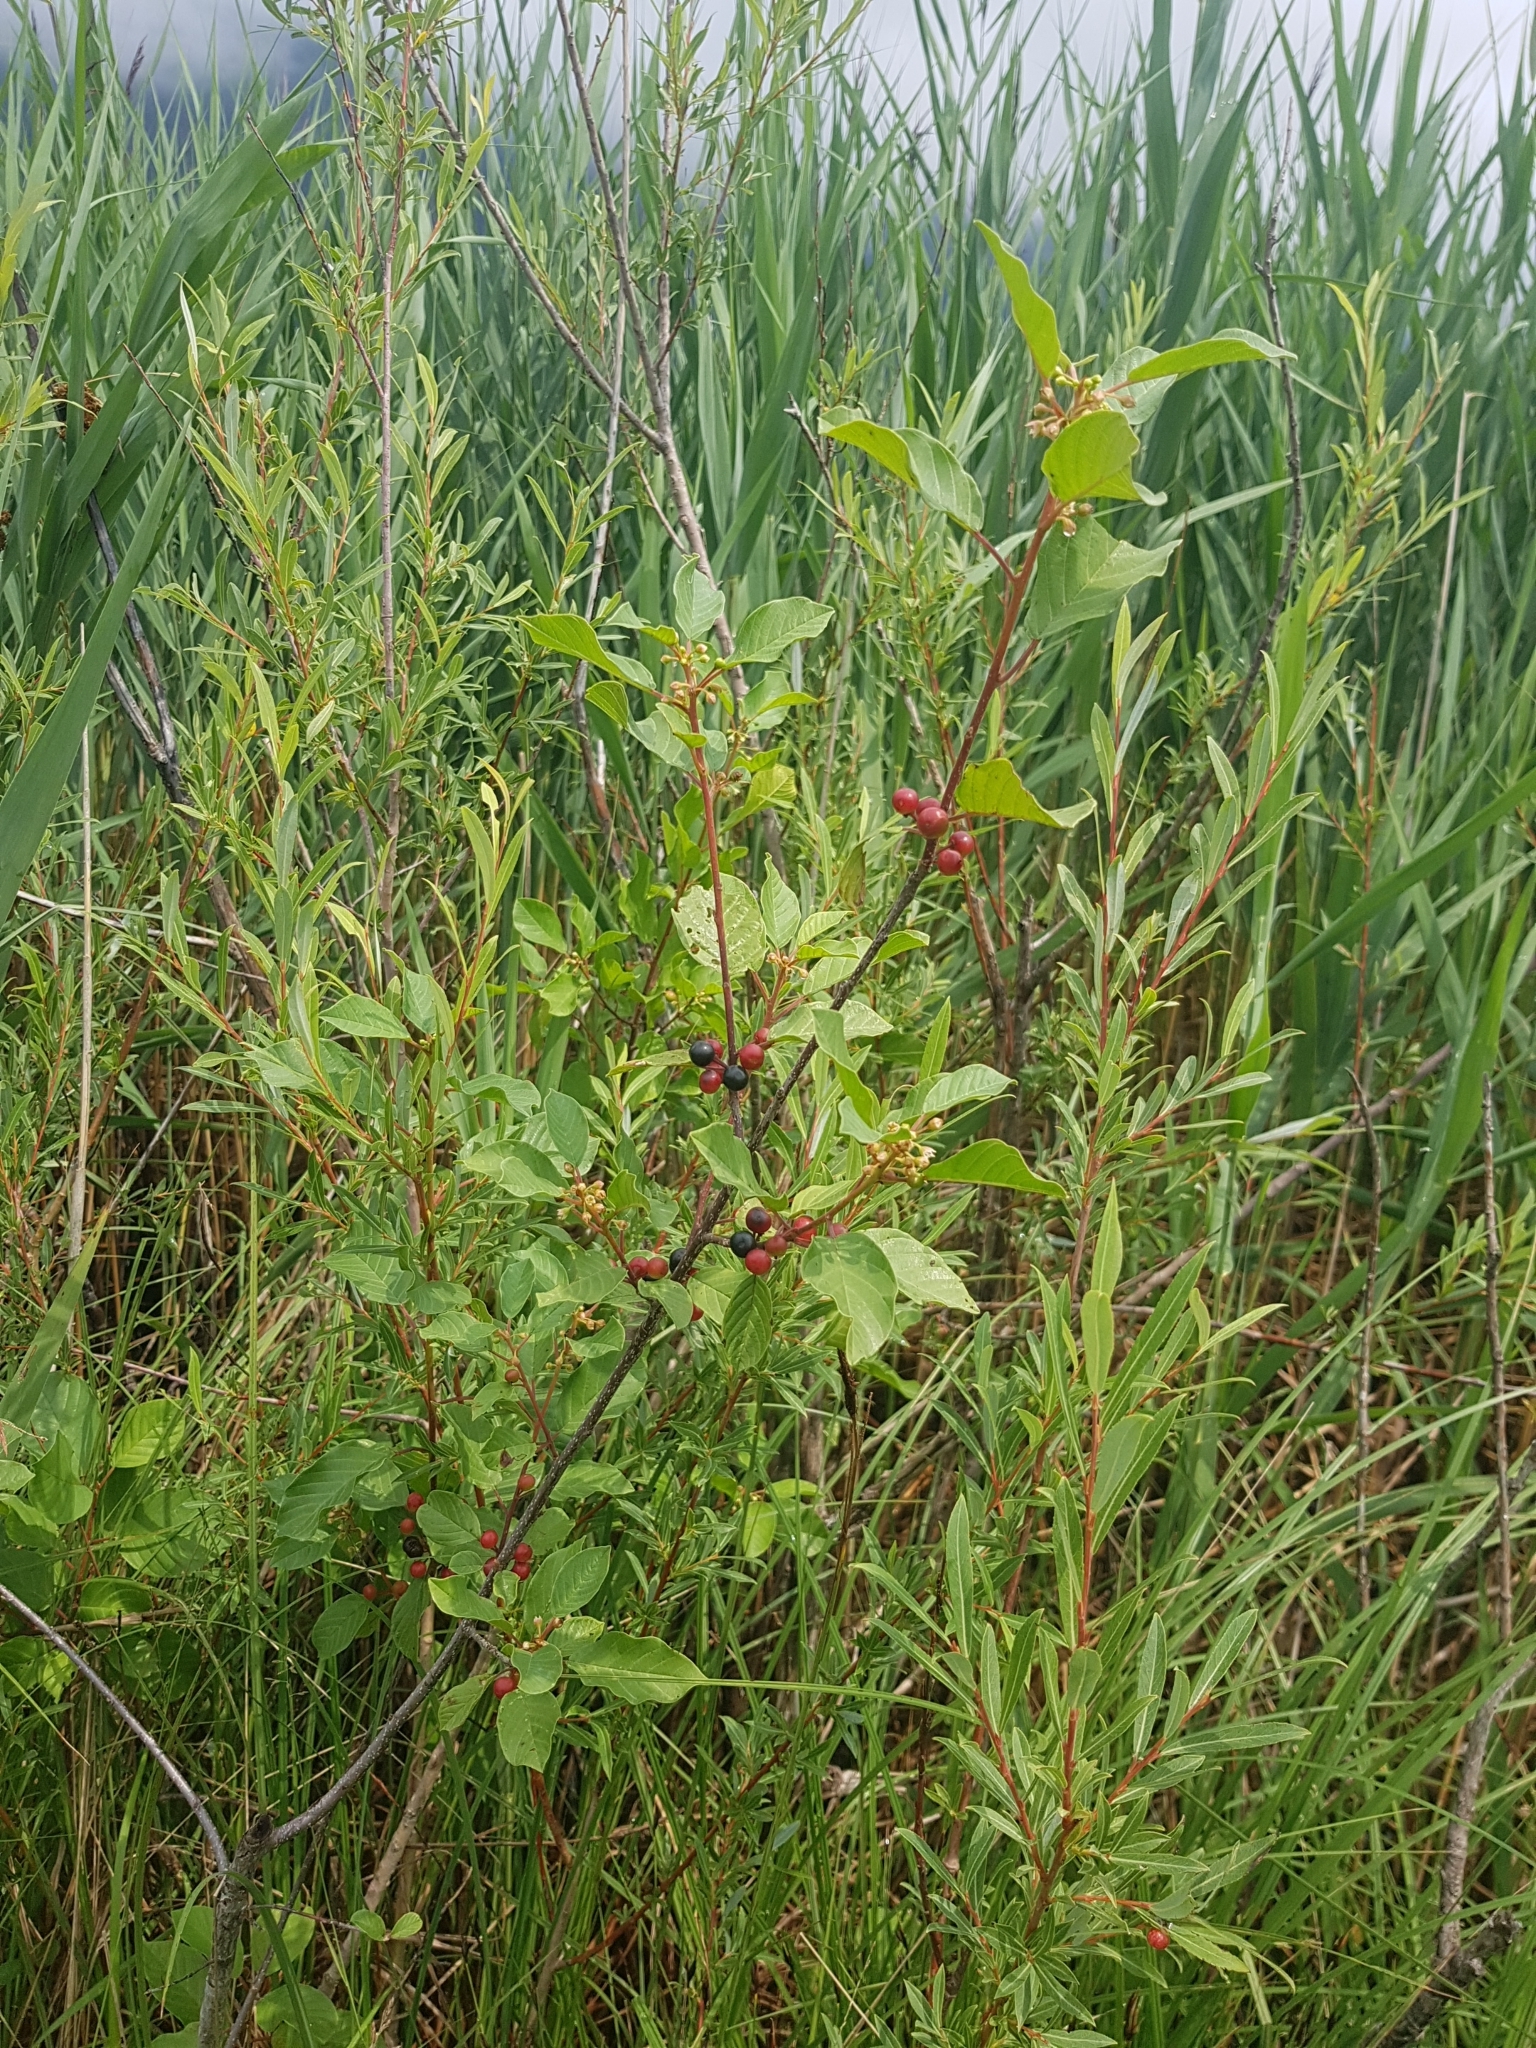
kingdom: Plantae
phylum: Tracheophyta
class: Magnoliopsida
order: Rosales
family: Rhamnaceae
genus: Frangula
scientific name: Frangula alnus
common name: Alder buckthorn
